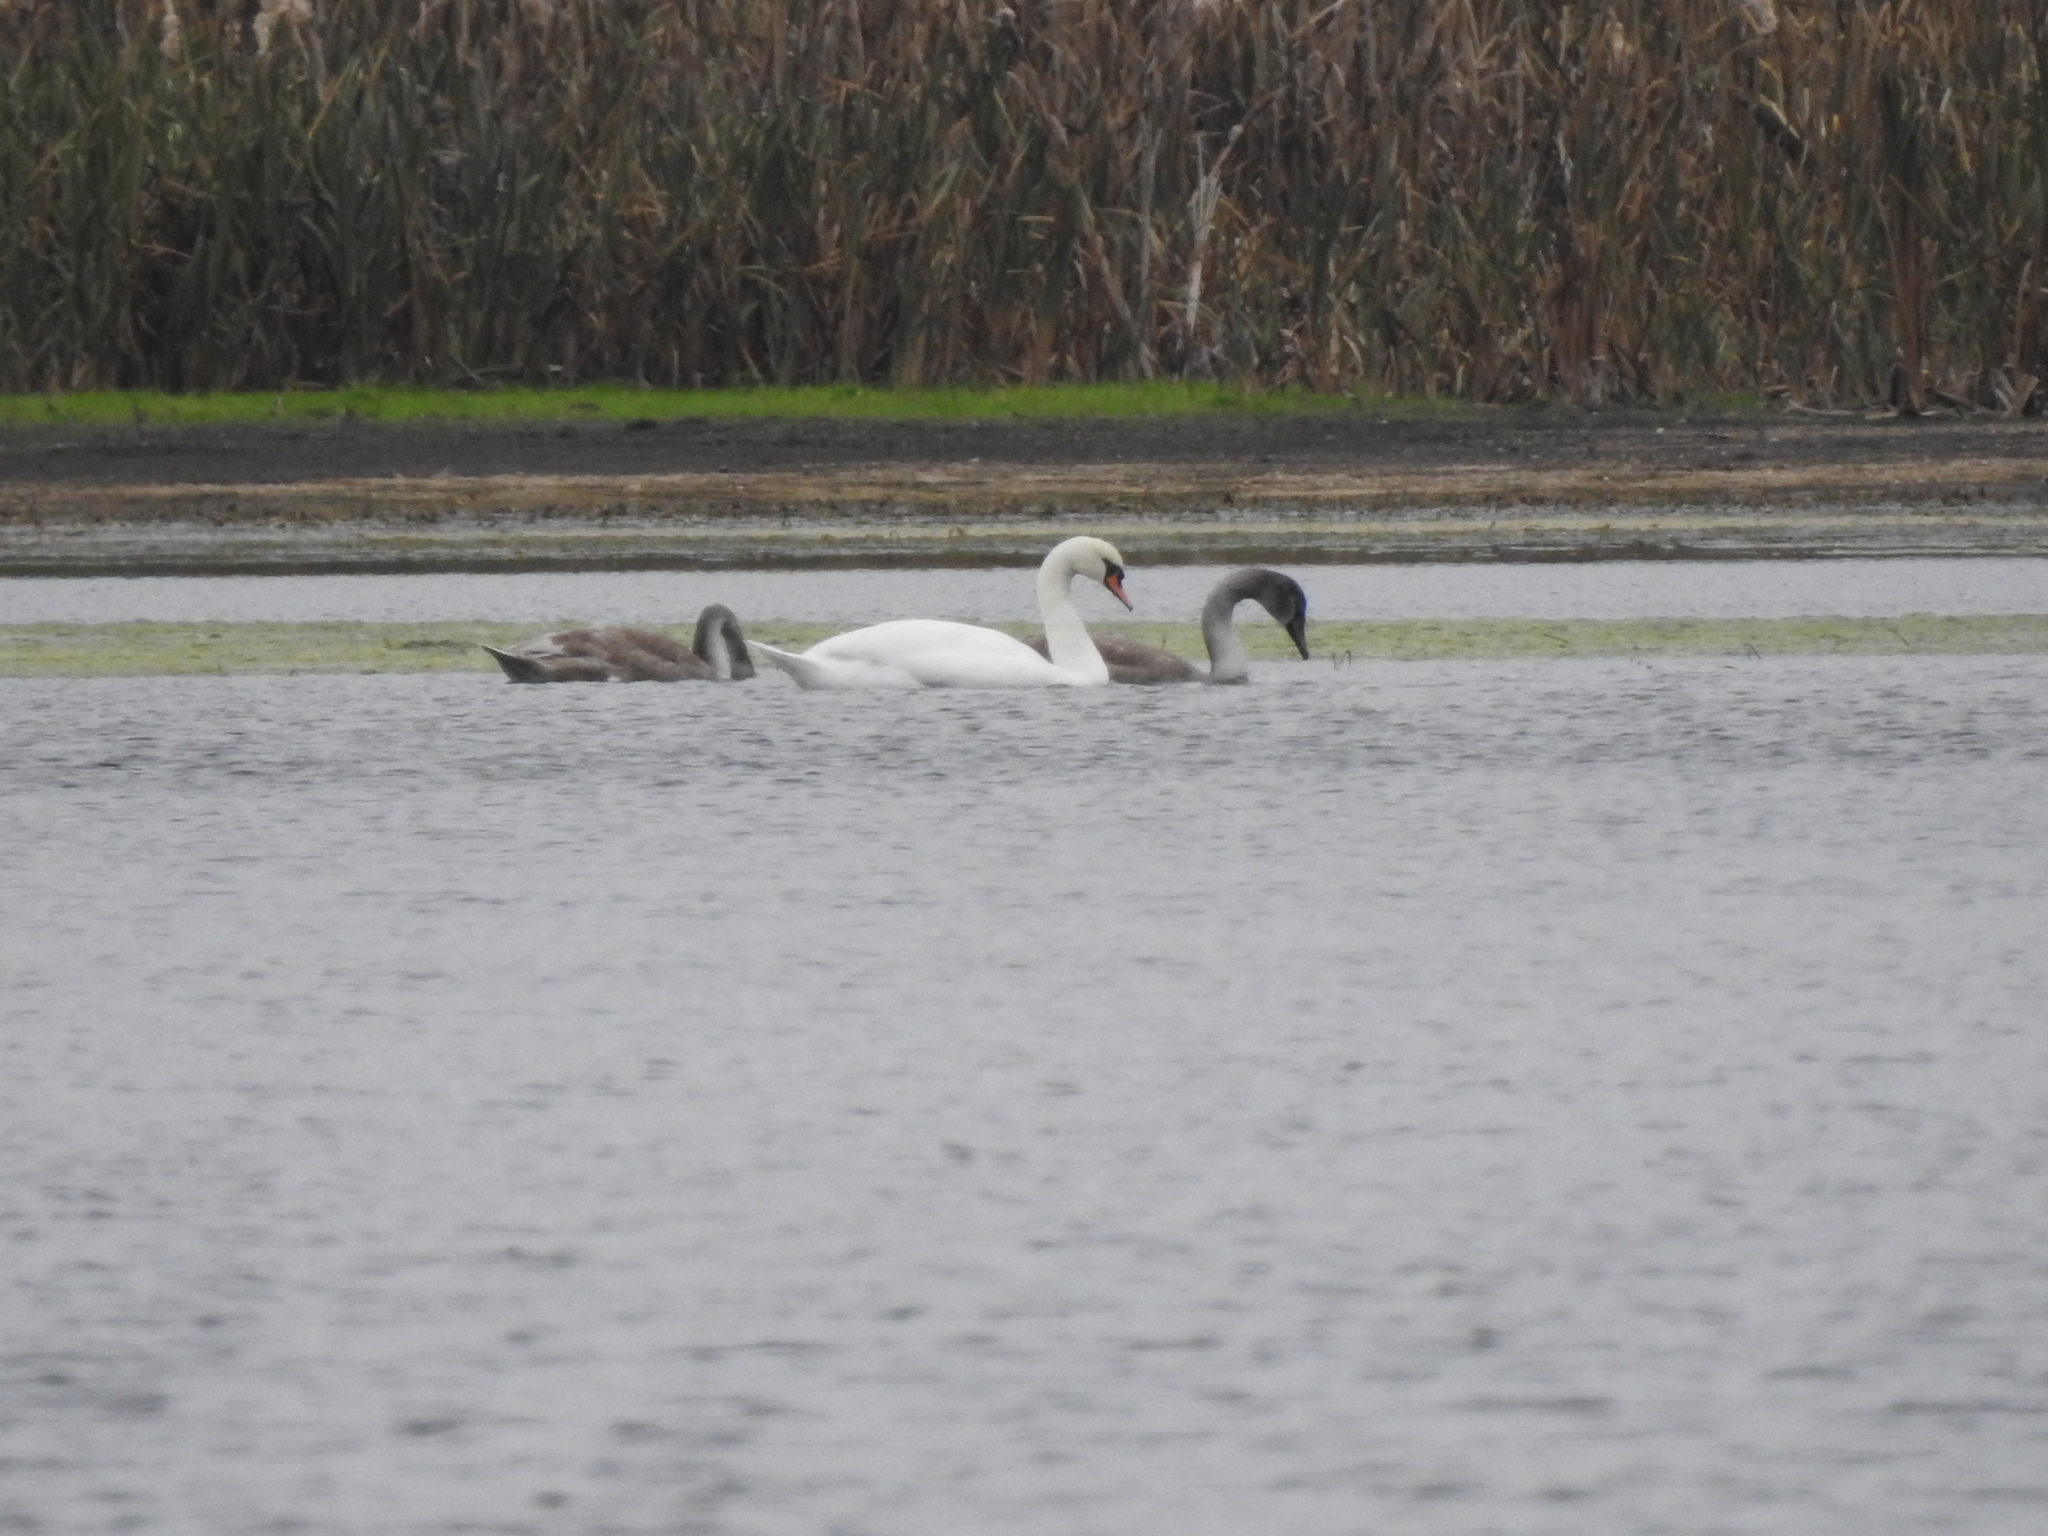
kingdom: Animalia
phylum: Chordata
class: Aves
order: Anseriformes
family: Anatidae
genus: Cygnus
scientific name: Cygnus olor
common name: Mute swan
